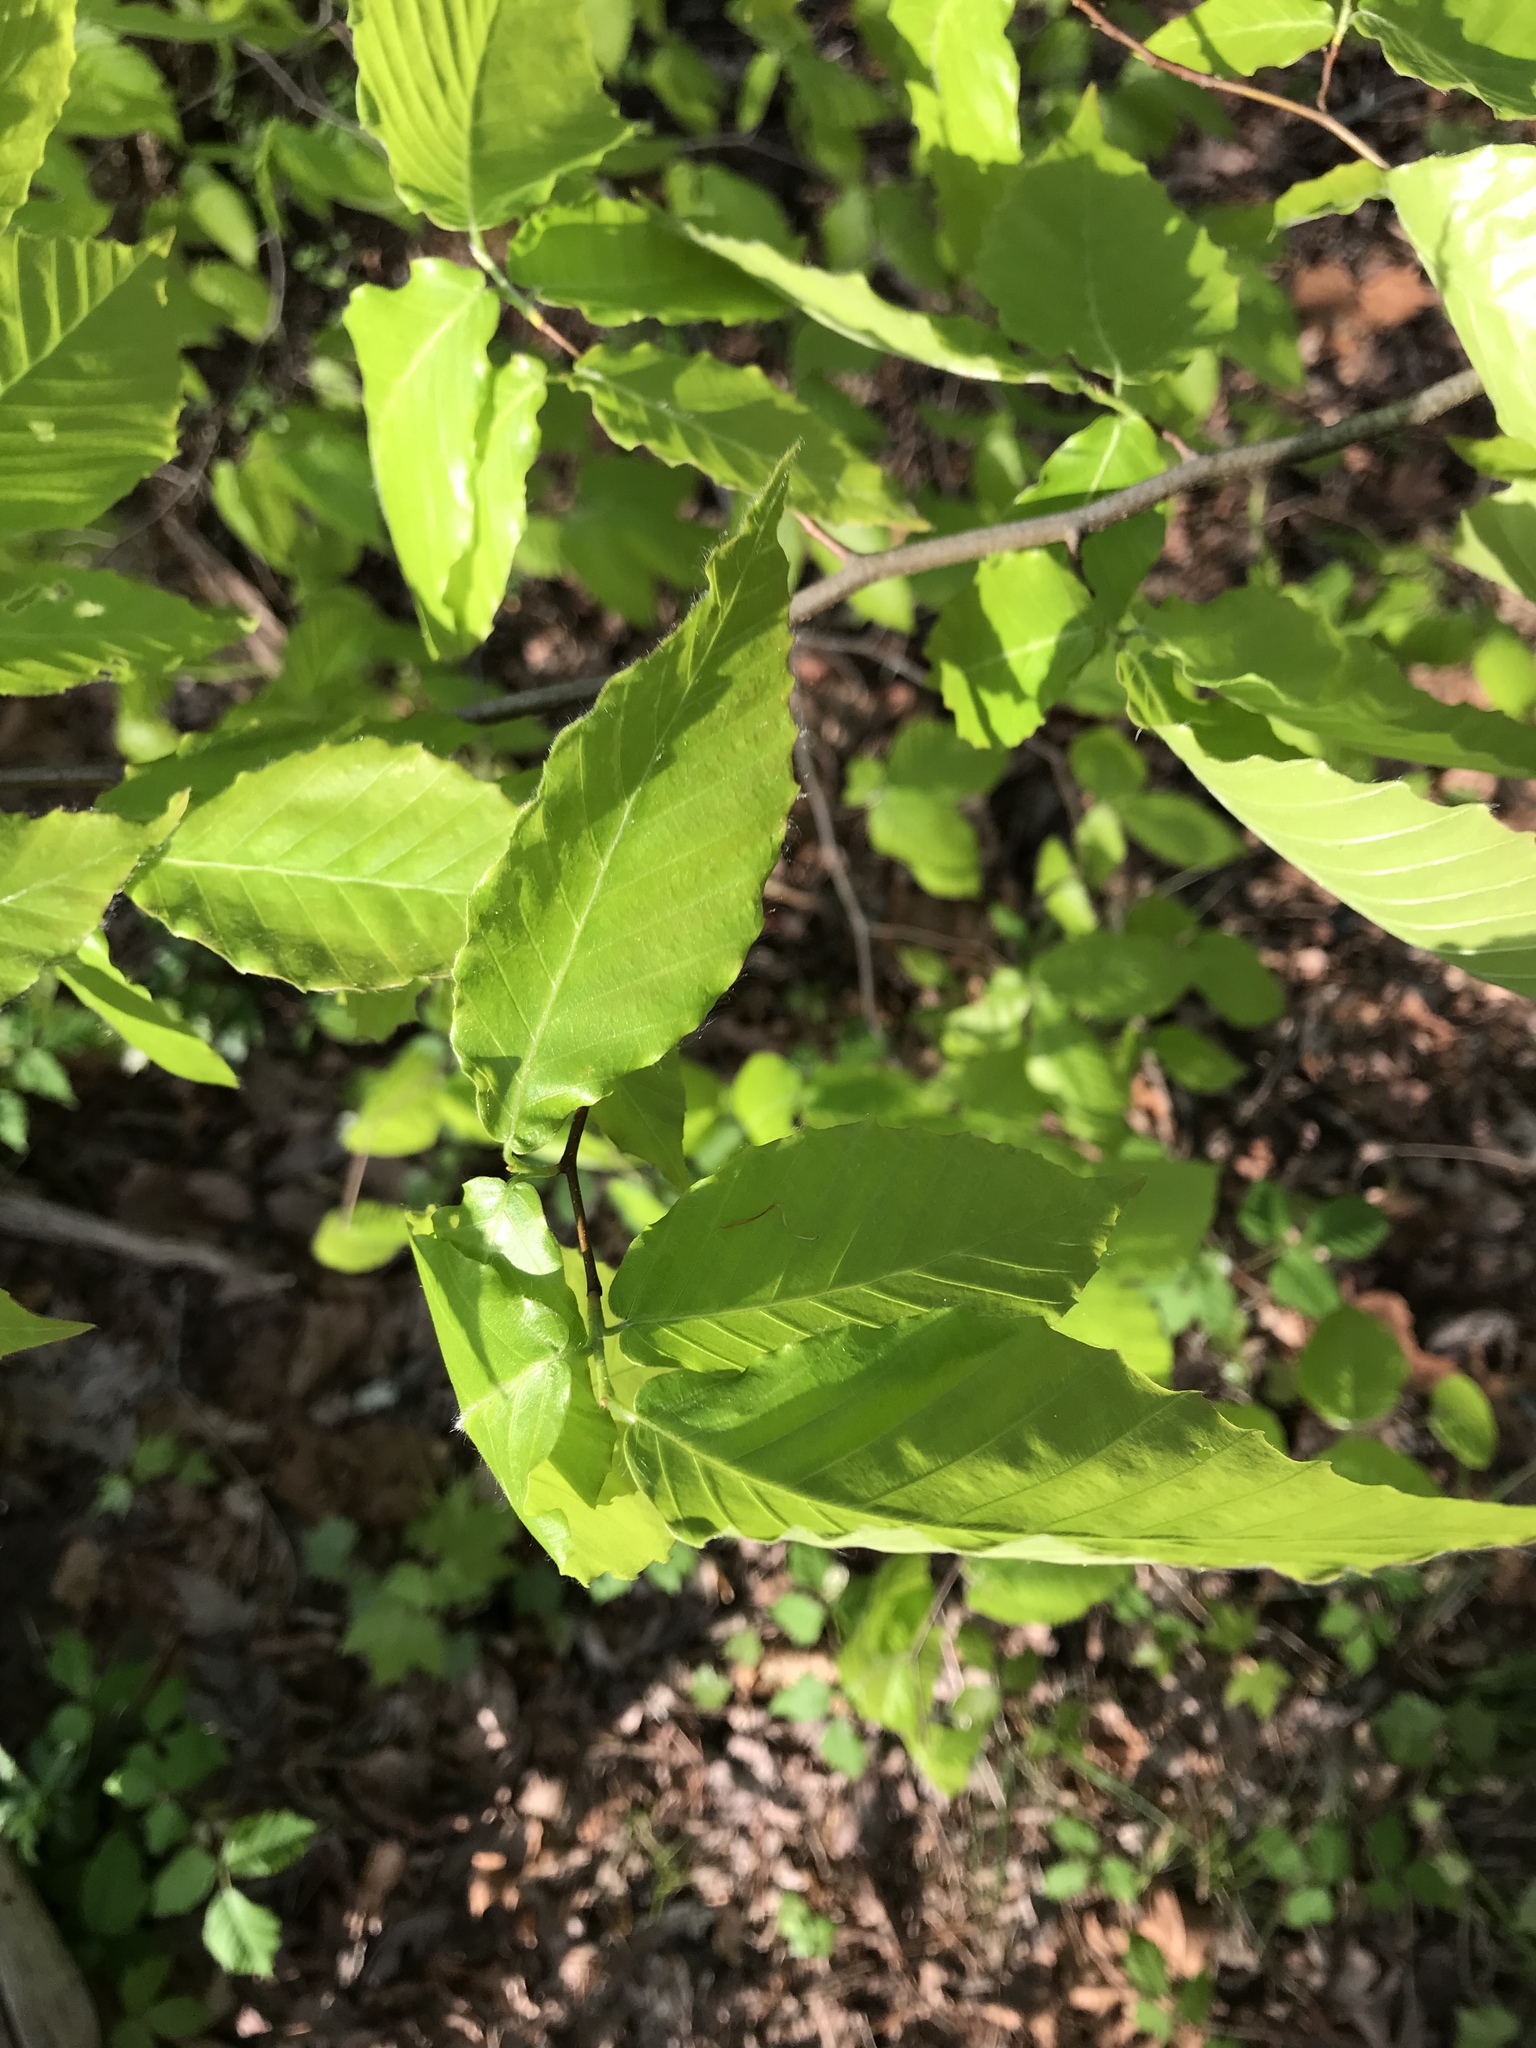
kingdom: Plantae
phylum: Tracheophyta
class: Magnoliopsida
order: Fagales
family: Fagaceae
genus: Fagus
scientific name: Fagus grandifolia
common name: American beech
